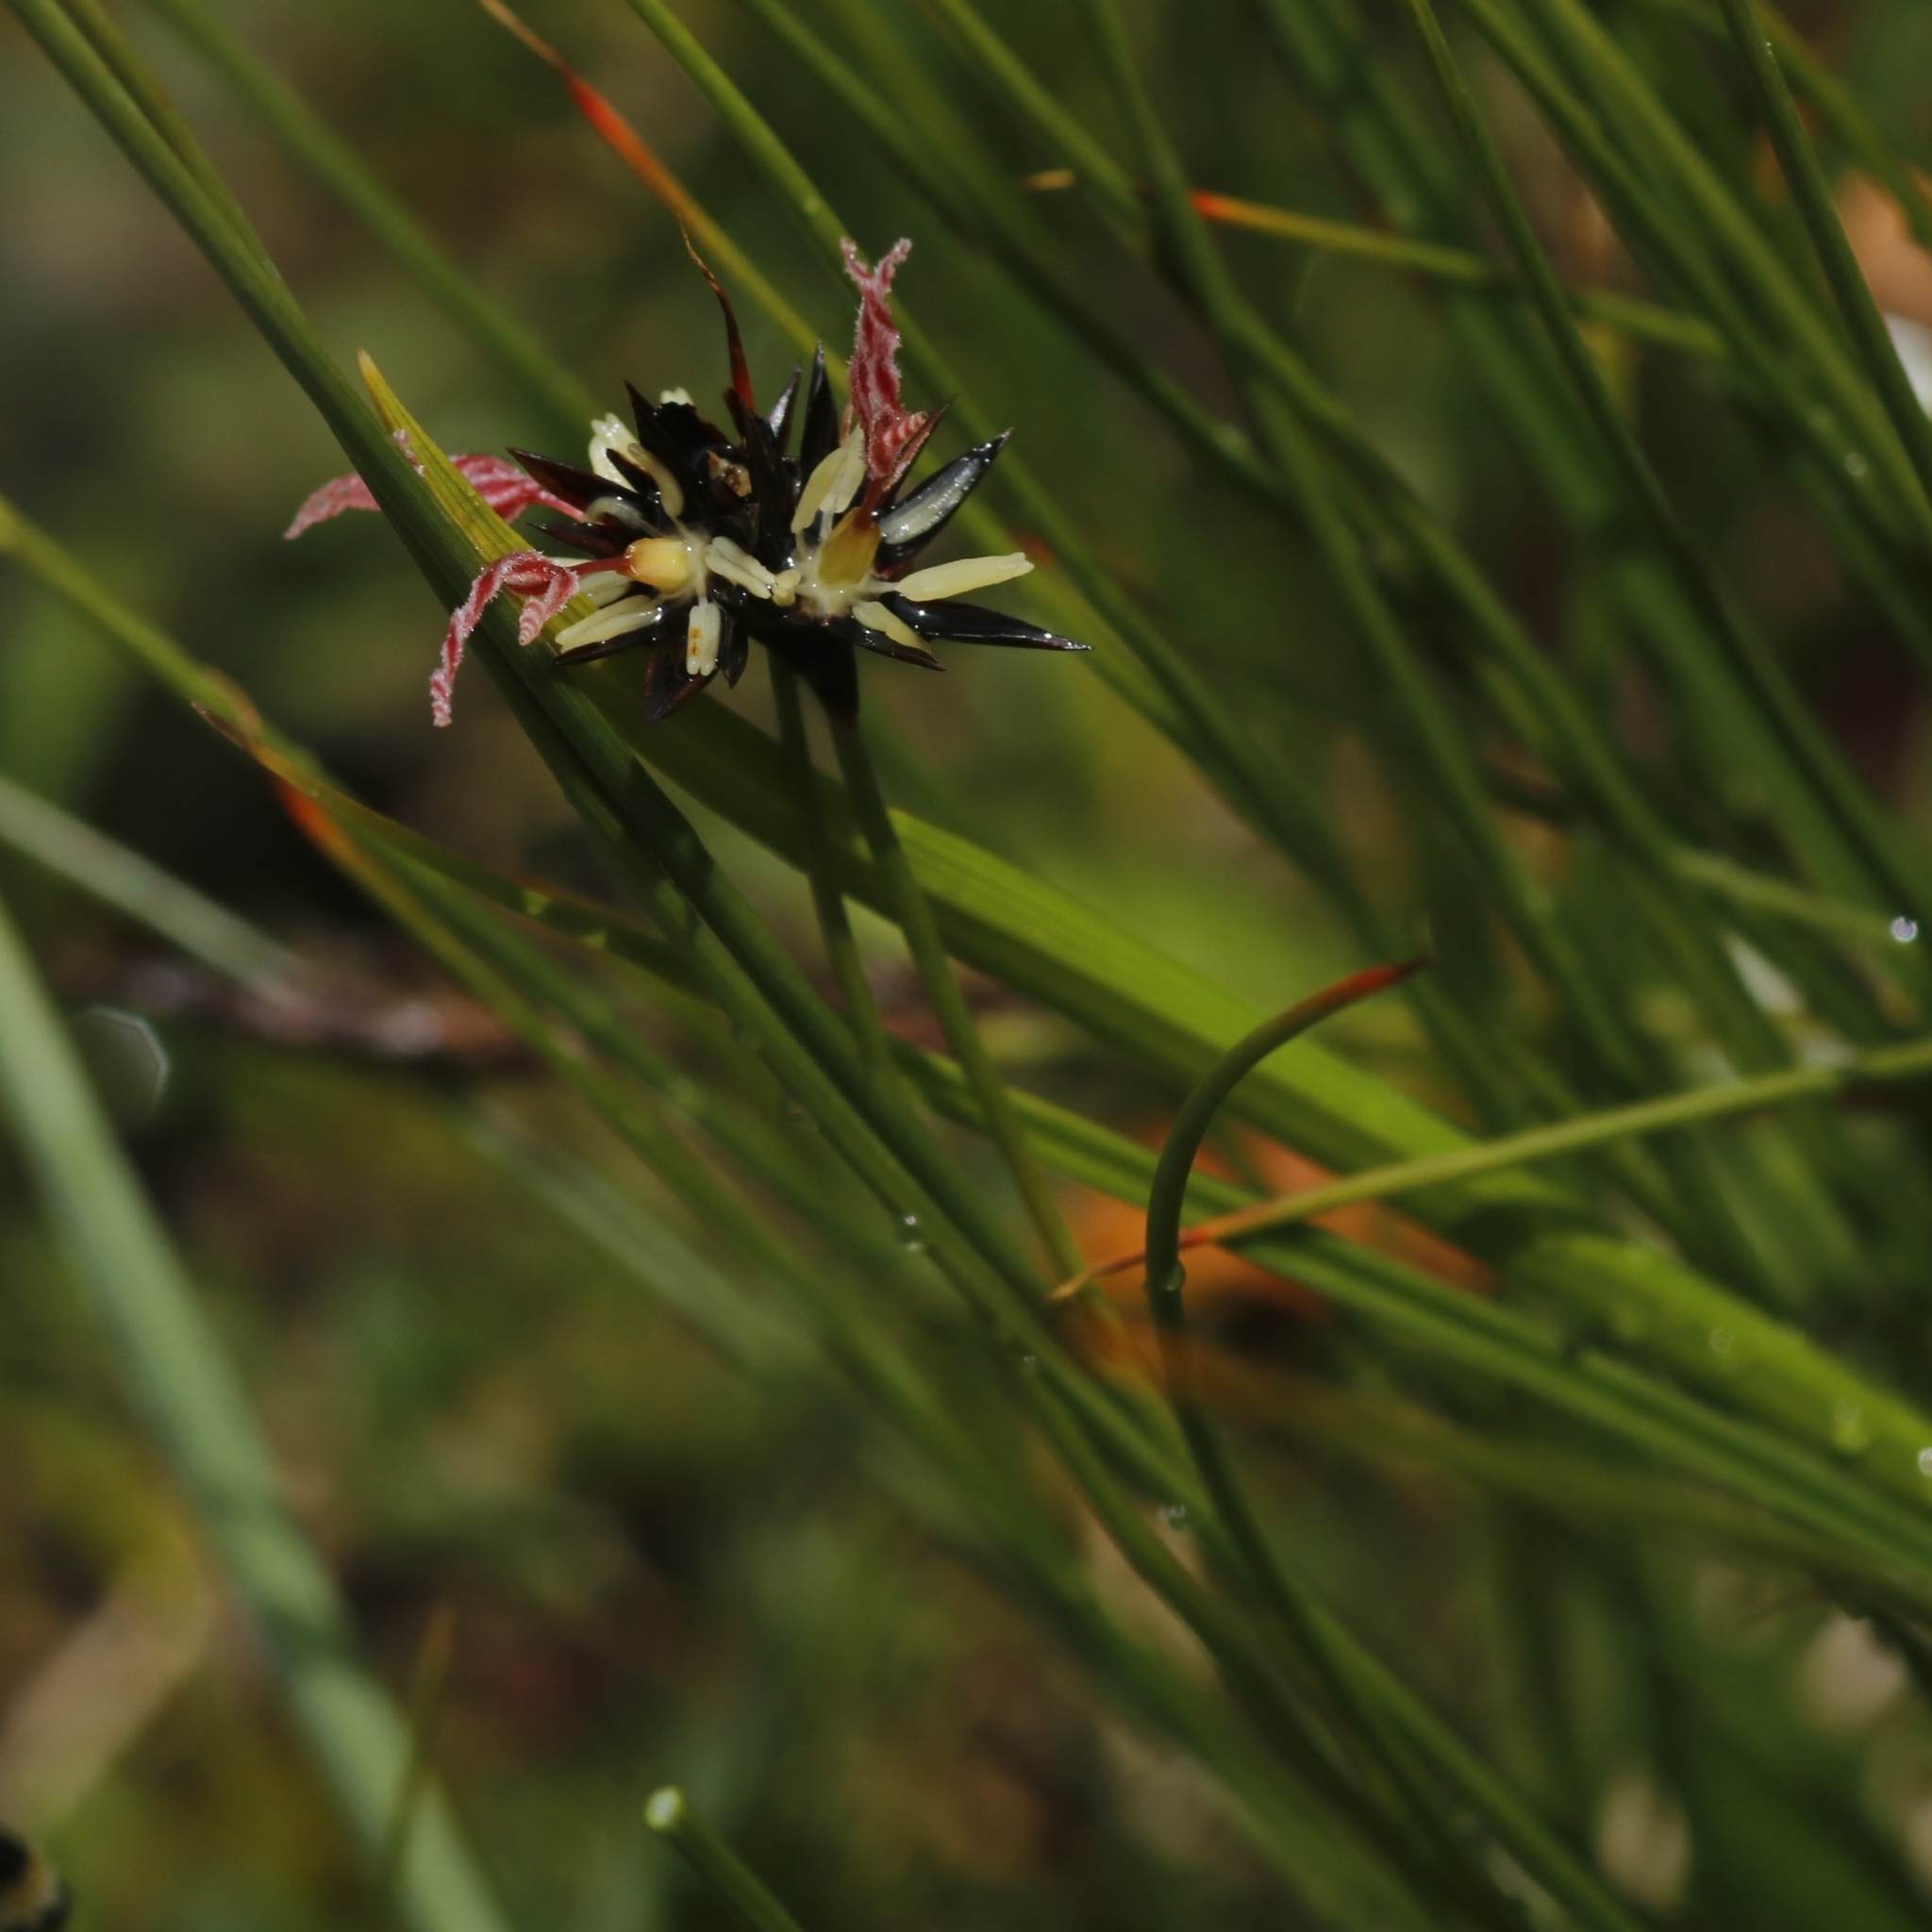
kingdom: Plantae
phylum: Tracheophyta
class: Liliopsida
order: Poales
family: Juncaceae
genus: Juncus
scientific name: Juncus jacquinii
